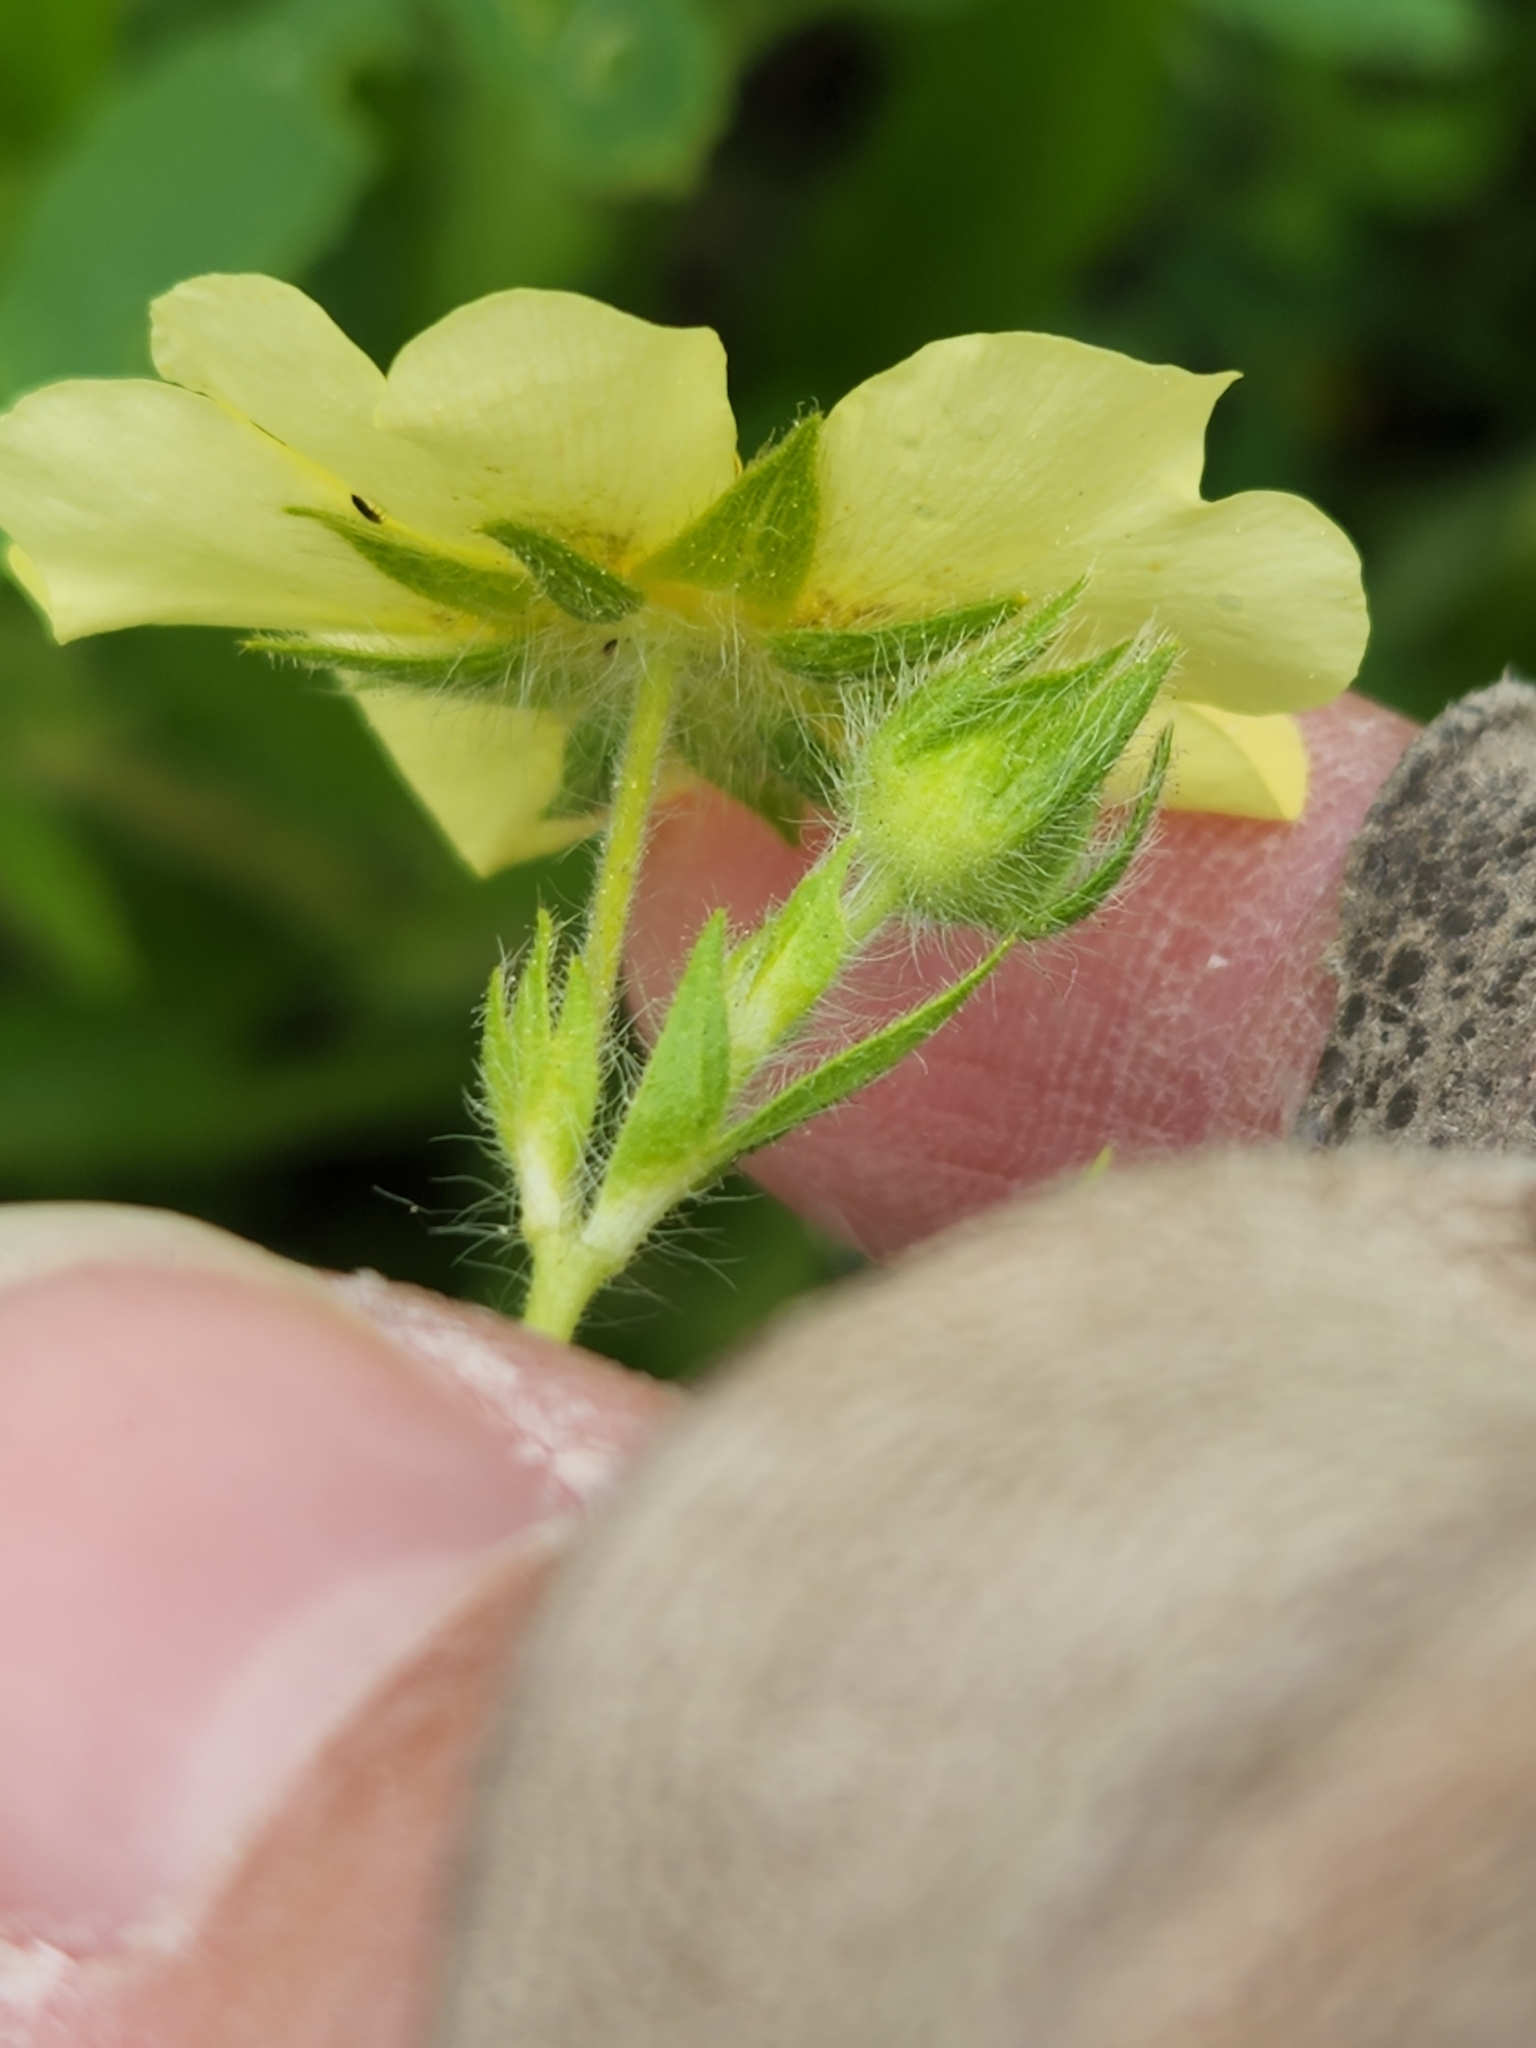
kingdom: Plantae
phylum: Tracheophyta
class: Magnoliopsida
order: Rosales
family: Rosaceae
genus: Potentilla
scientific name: Potentilla recta
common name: Sulphur cinquefoil
